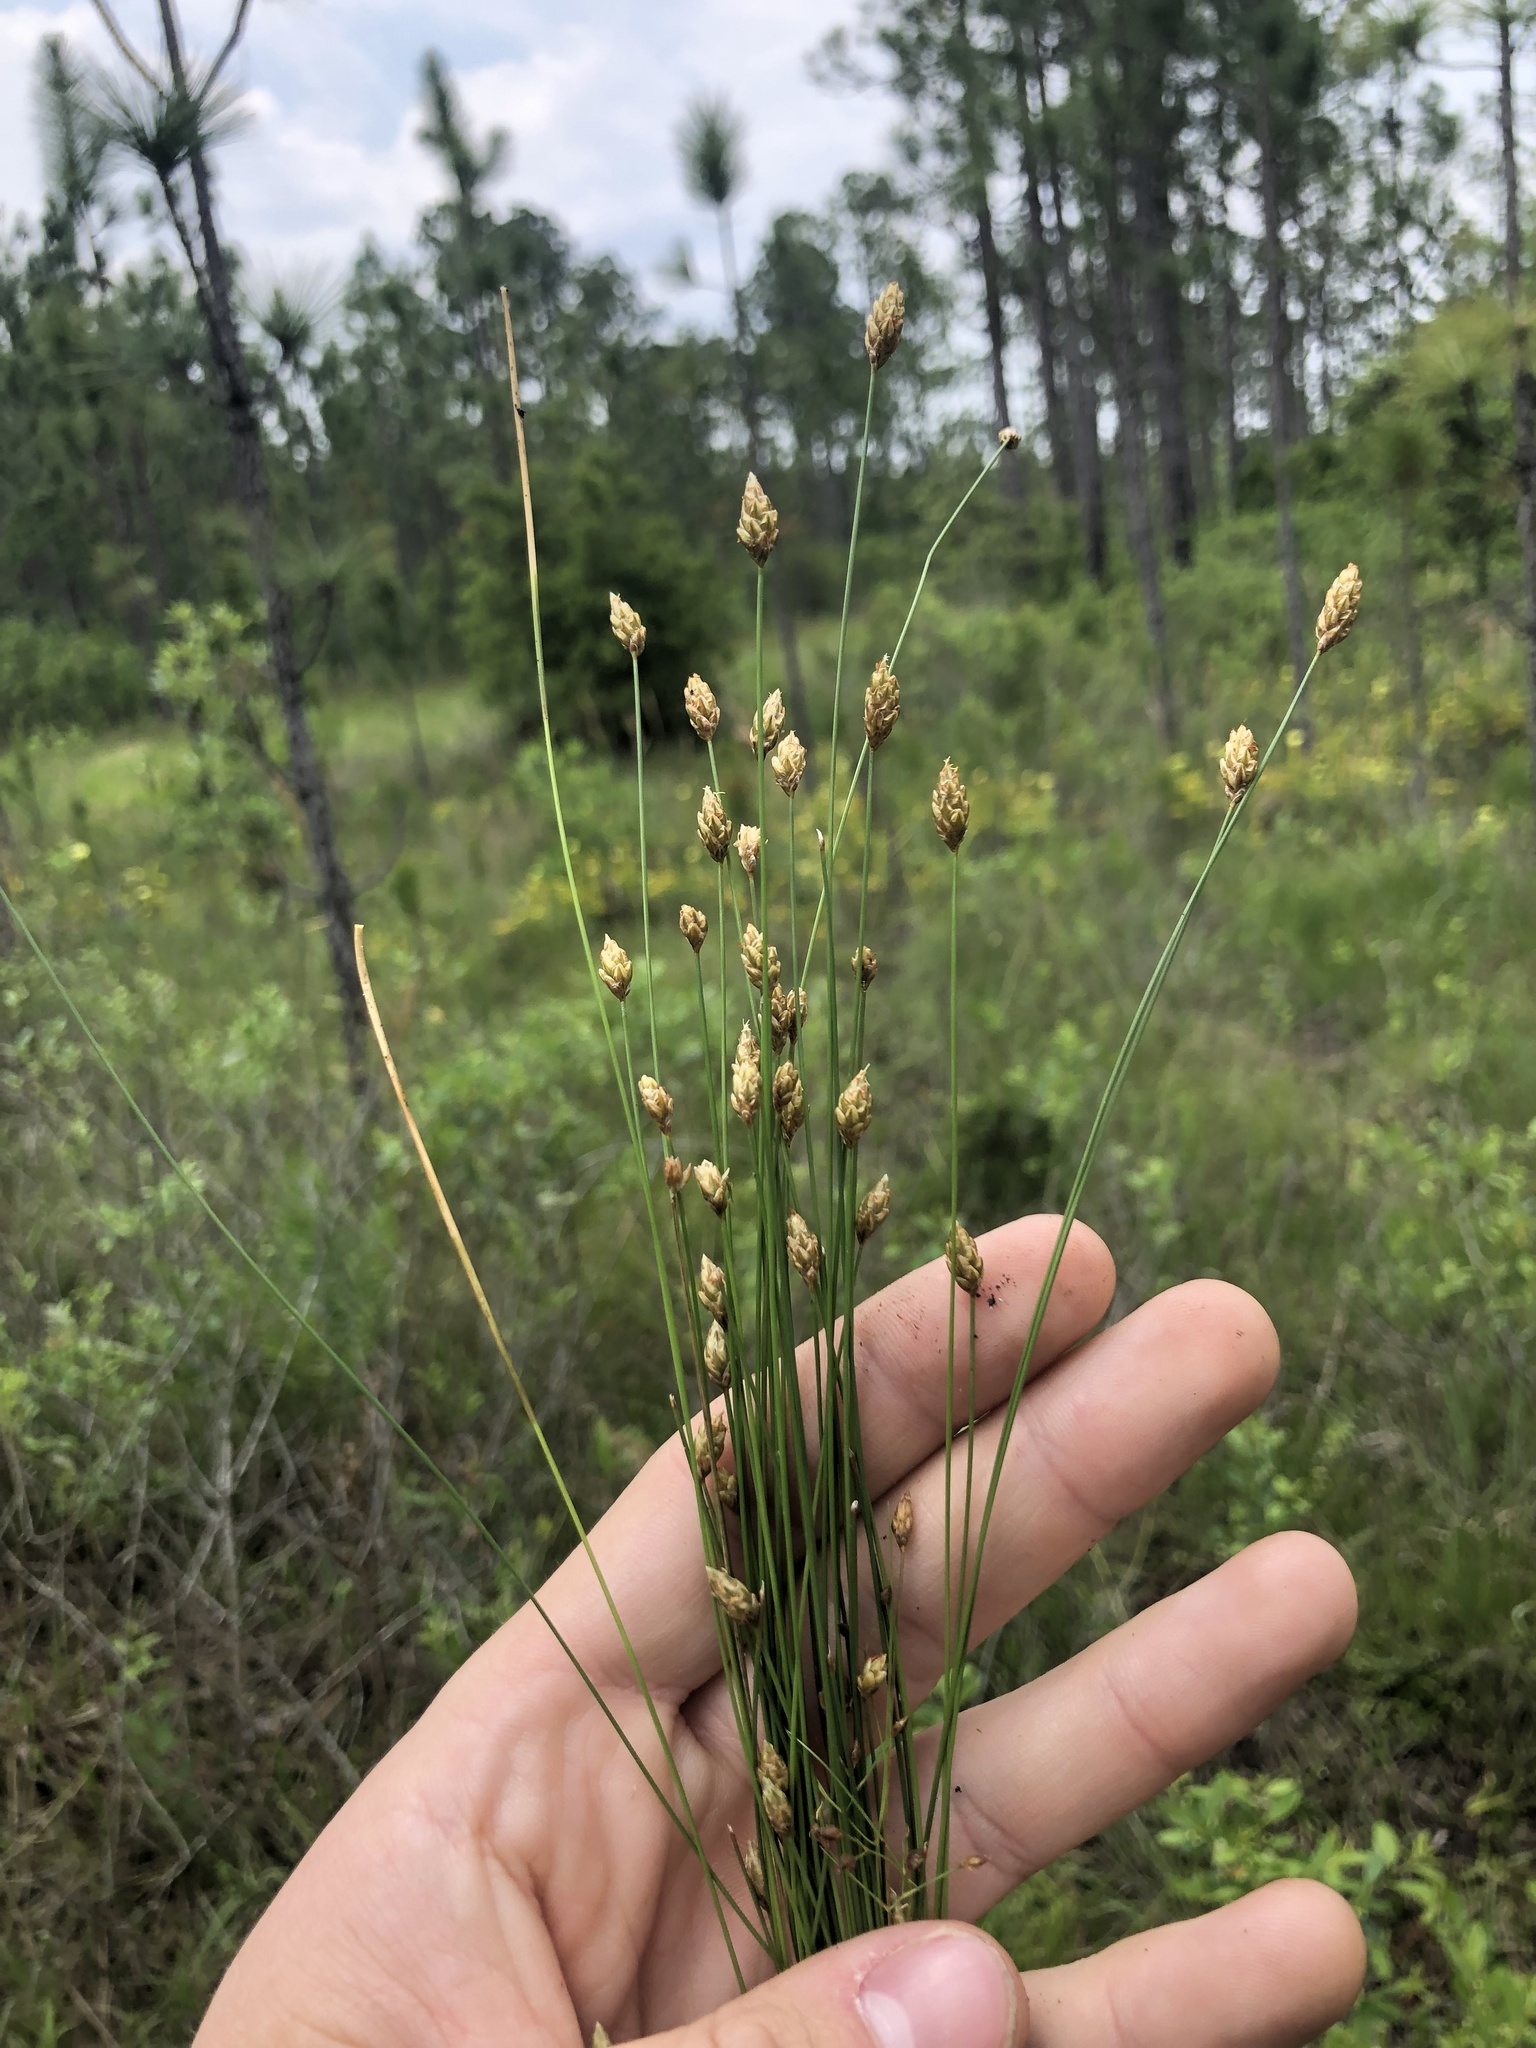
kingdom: Plantae
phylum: Tracheophyta
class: Liliopsida
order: Poales
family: Cyperaceae
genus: Eleocharis
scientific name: Eleocharis tuberculosa
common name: Cone-cup spikerush
